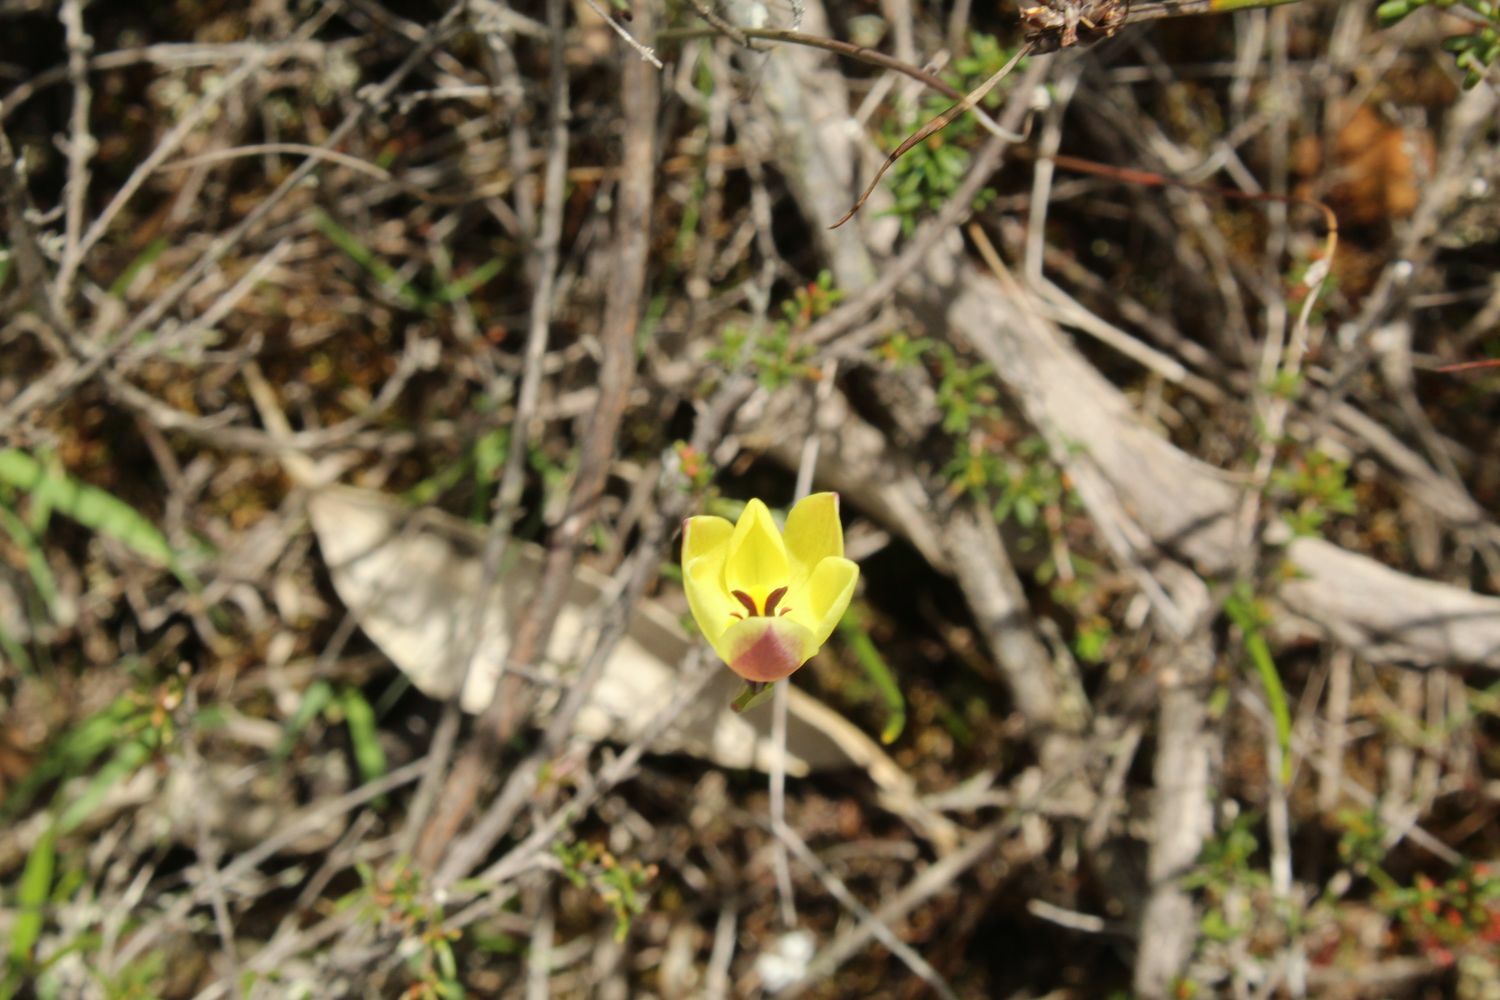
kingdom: Plantae
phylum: Tracheophyta
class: Liliopsida
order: Asparagales
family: Orchidaceae
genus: Thelymitra
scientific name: Thelymitra antennifera
